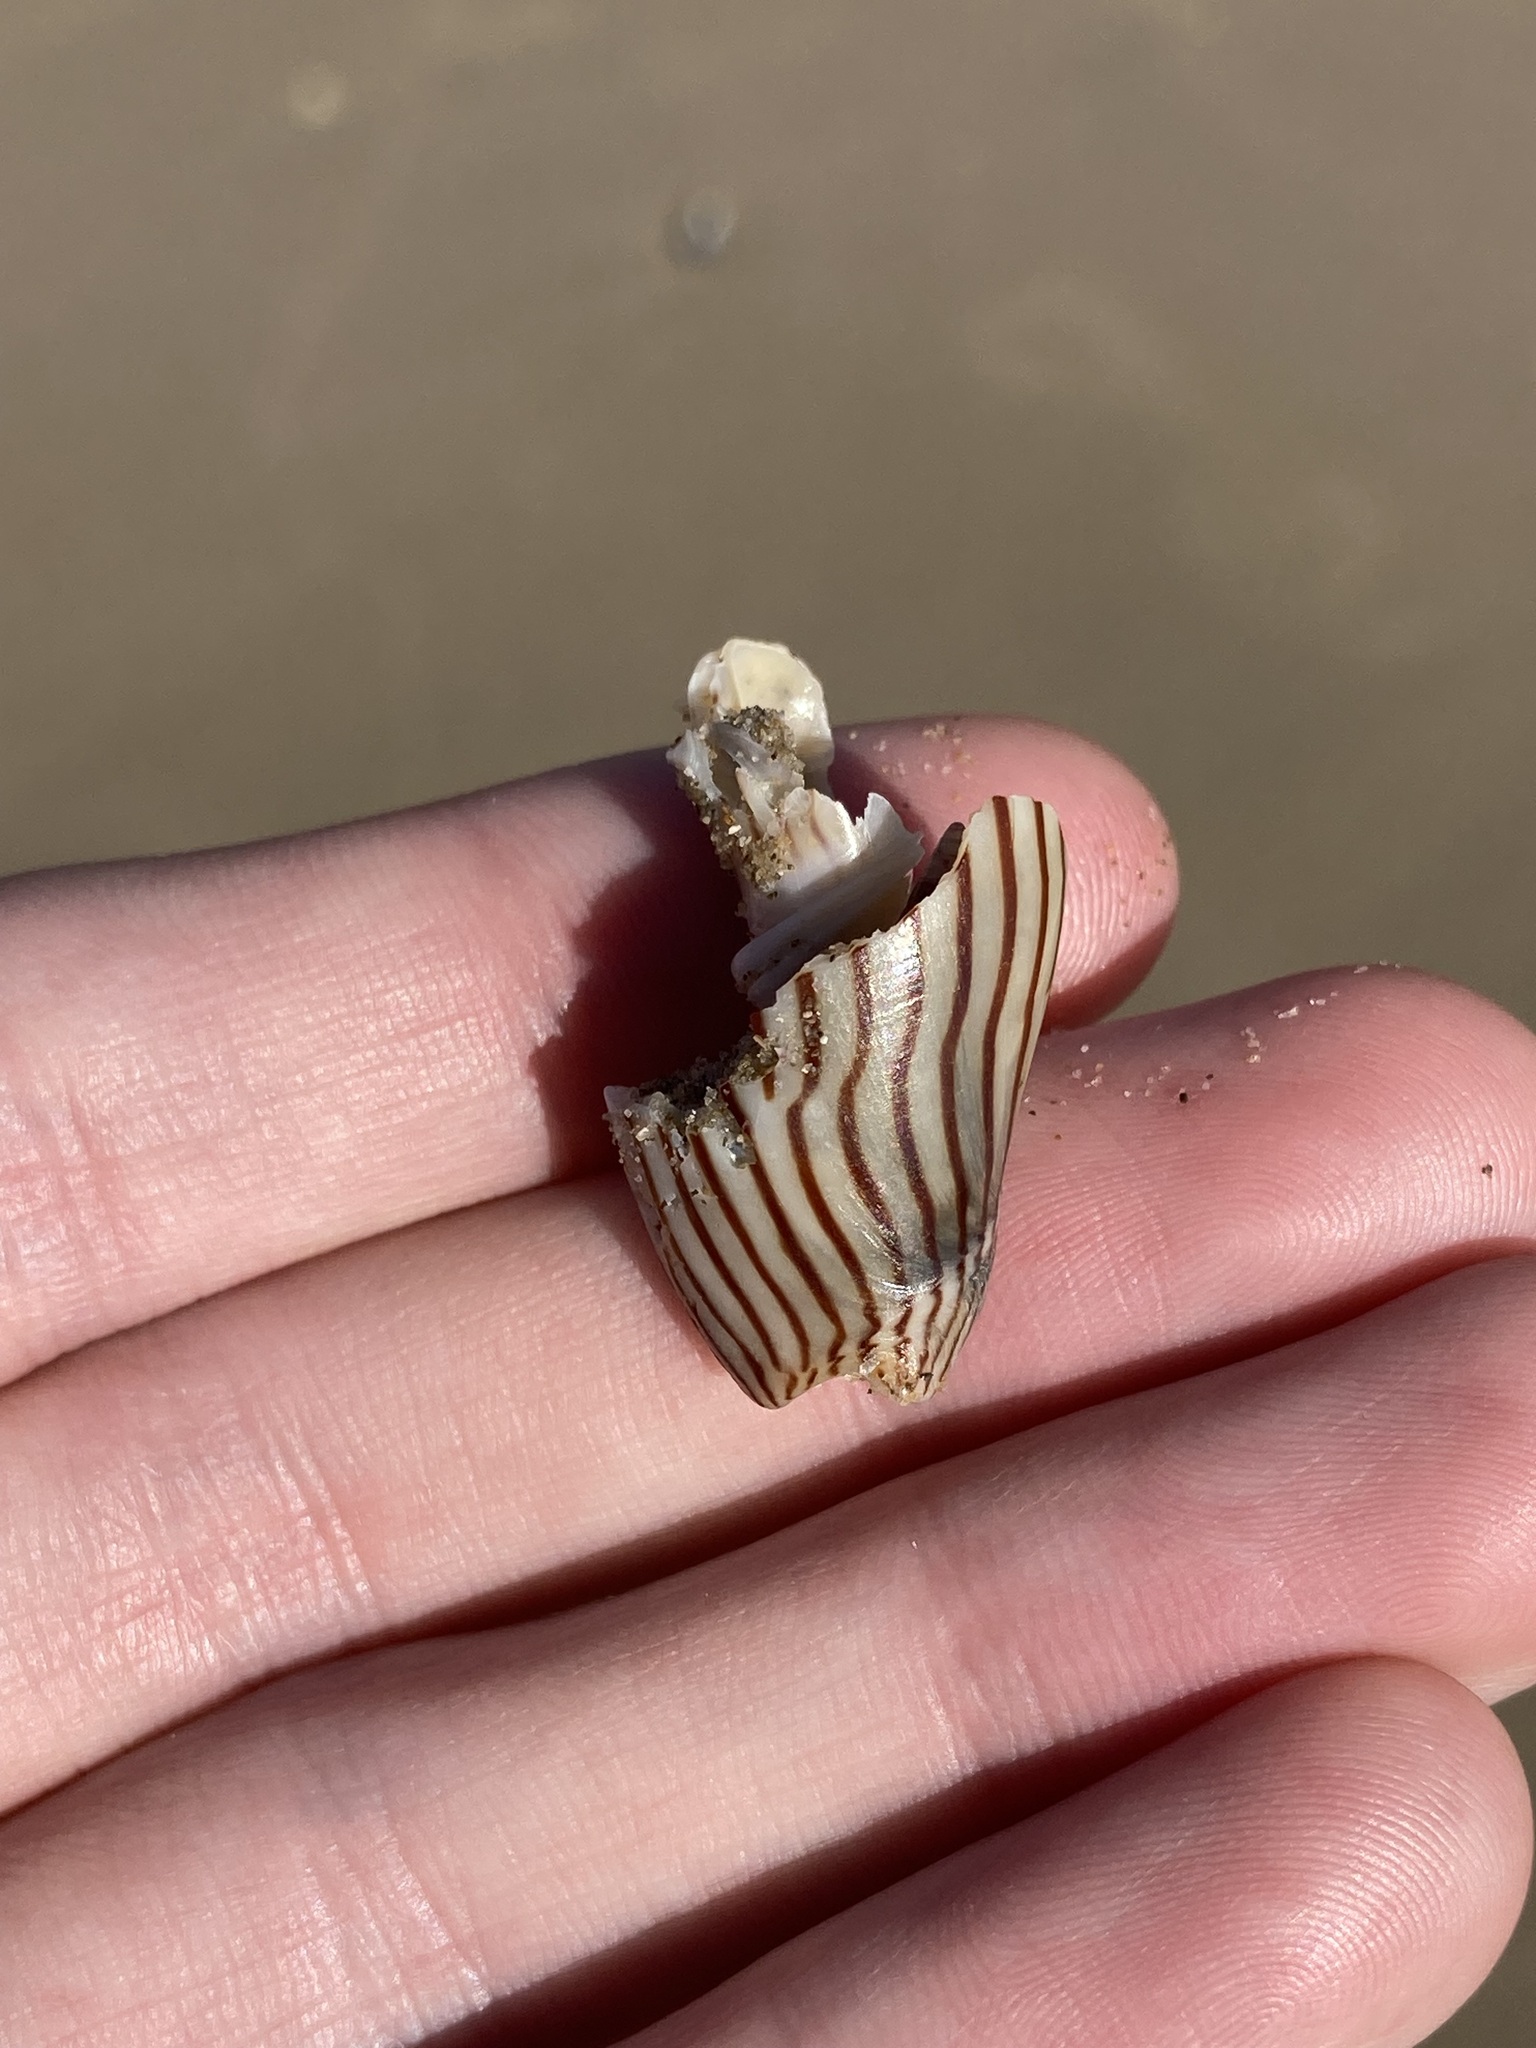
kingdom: Animalia
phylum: Mollusca
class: Gastropoda
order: Neogastropoda
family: Volutidae
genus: Amoria
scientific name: Amoria zebra
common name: Zebra volute
